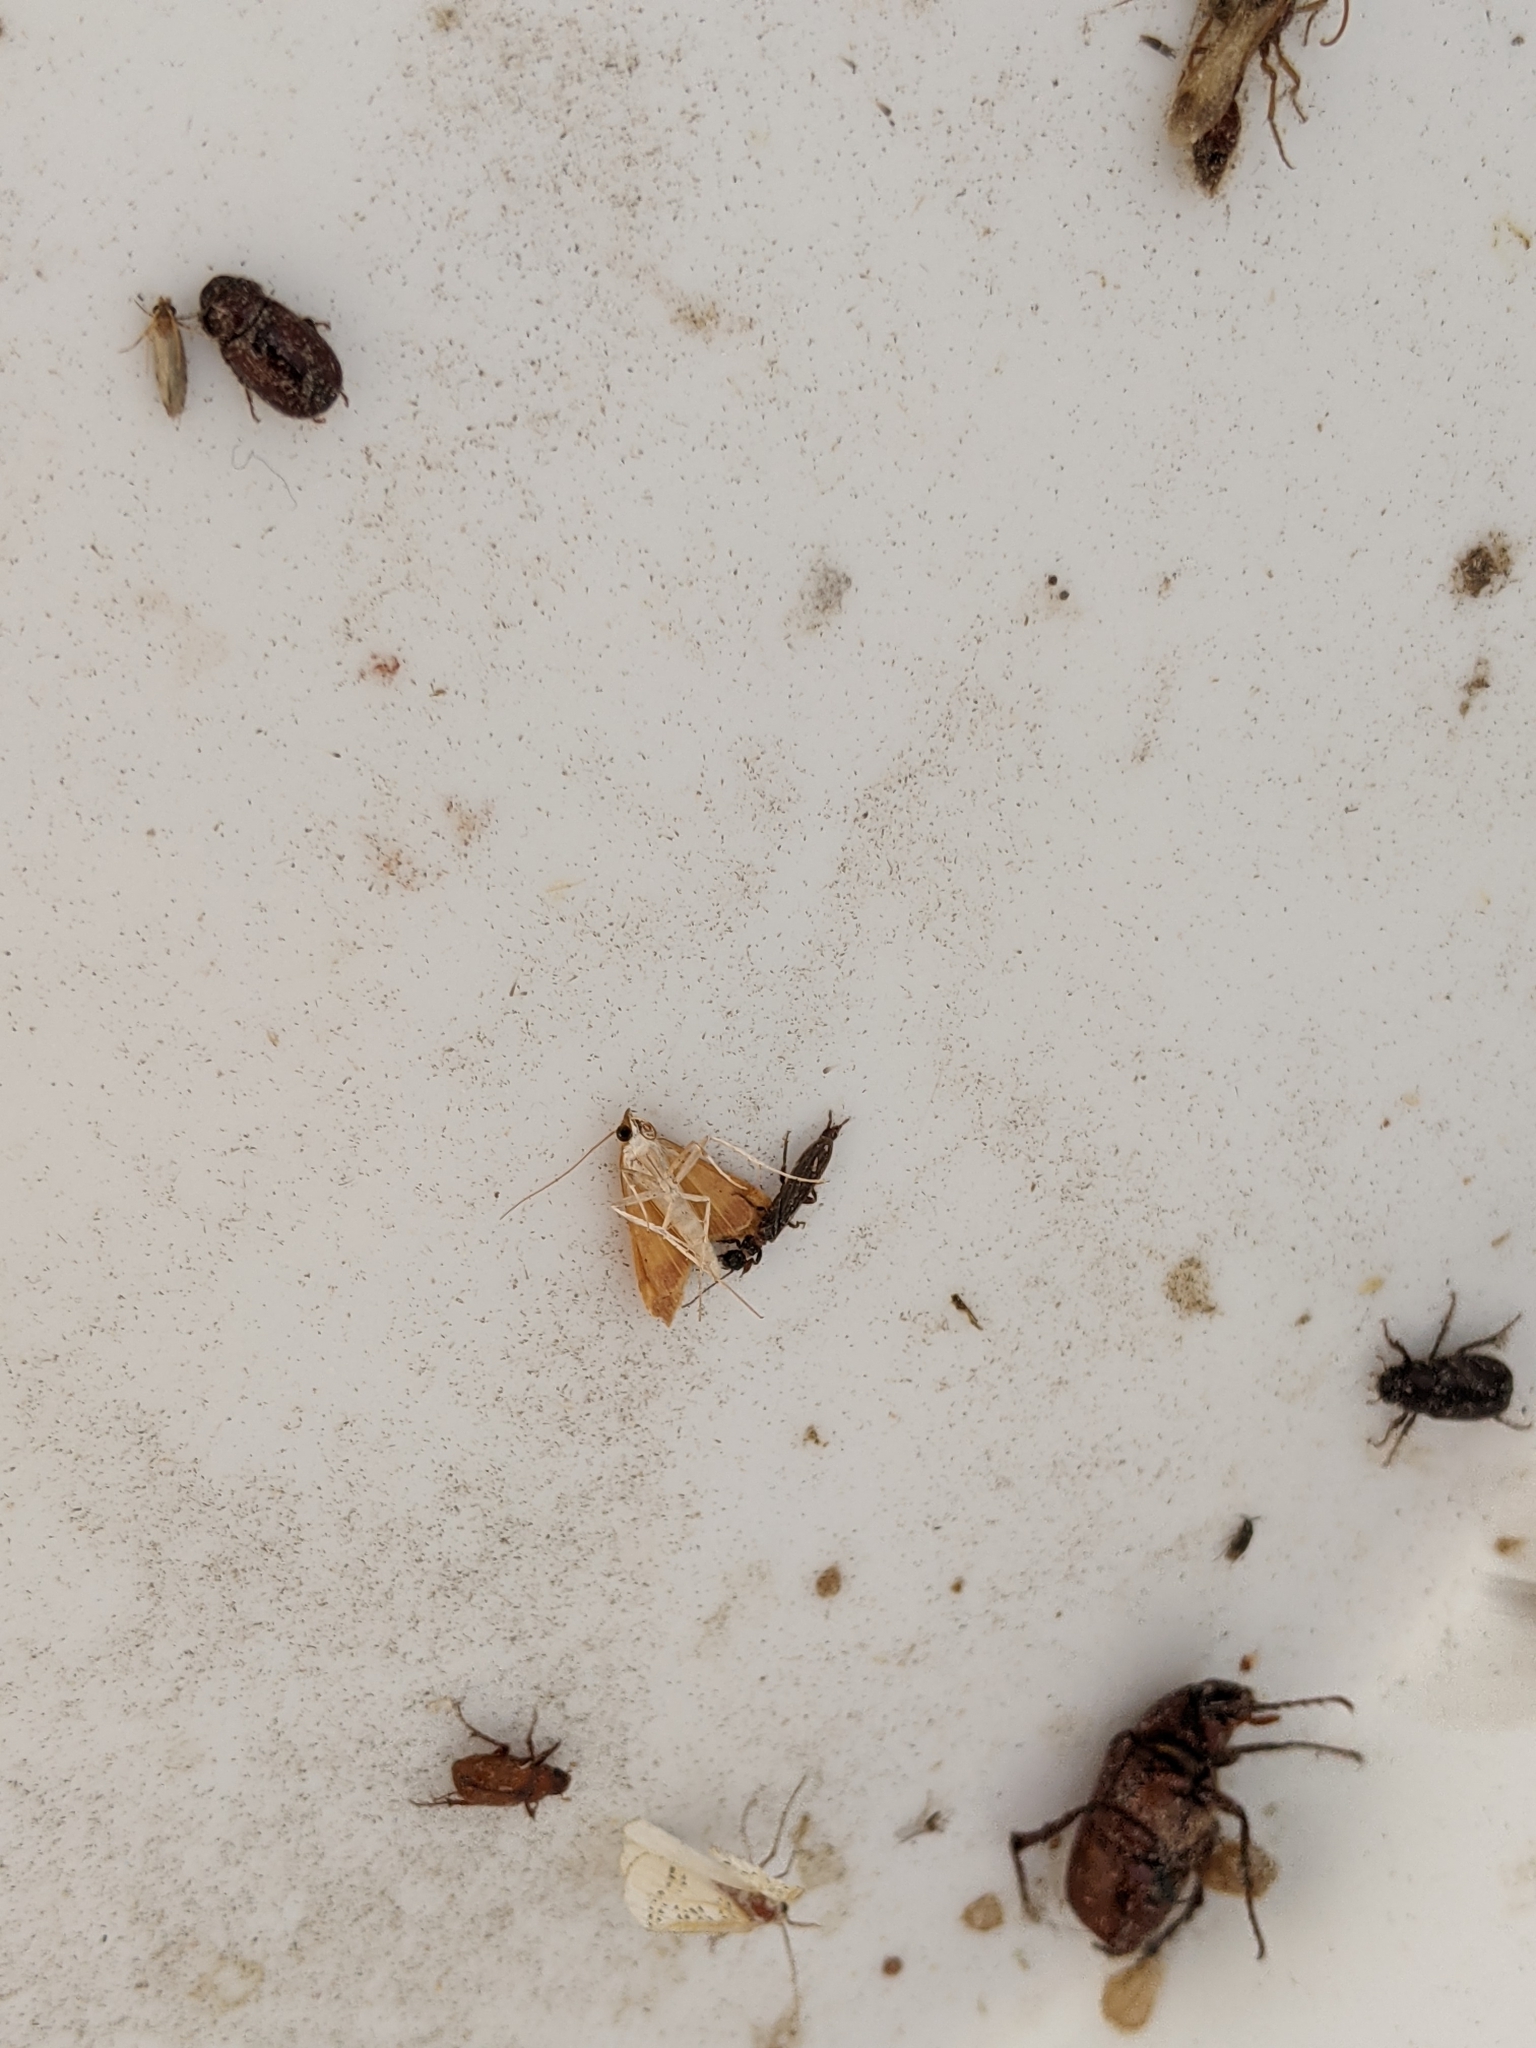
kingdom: Animalia
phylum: Arthropoda
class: Insecta
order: Embioptera
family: Oligotomidae
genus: Oligotoma
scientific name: Oligotoma nigra
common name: Black webspinner
